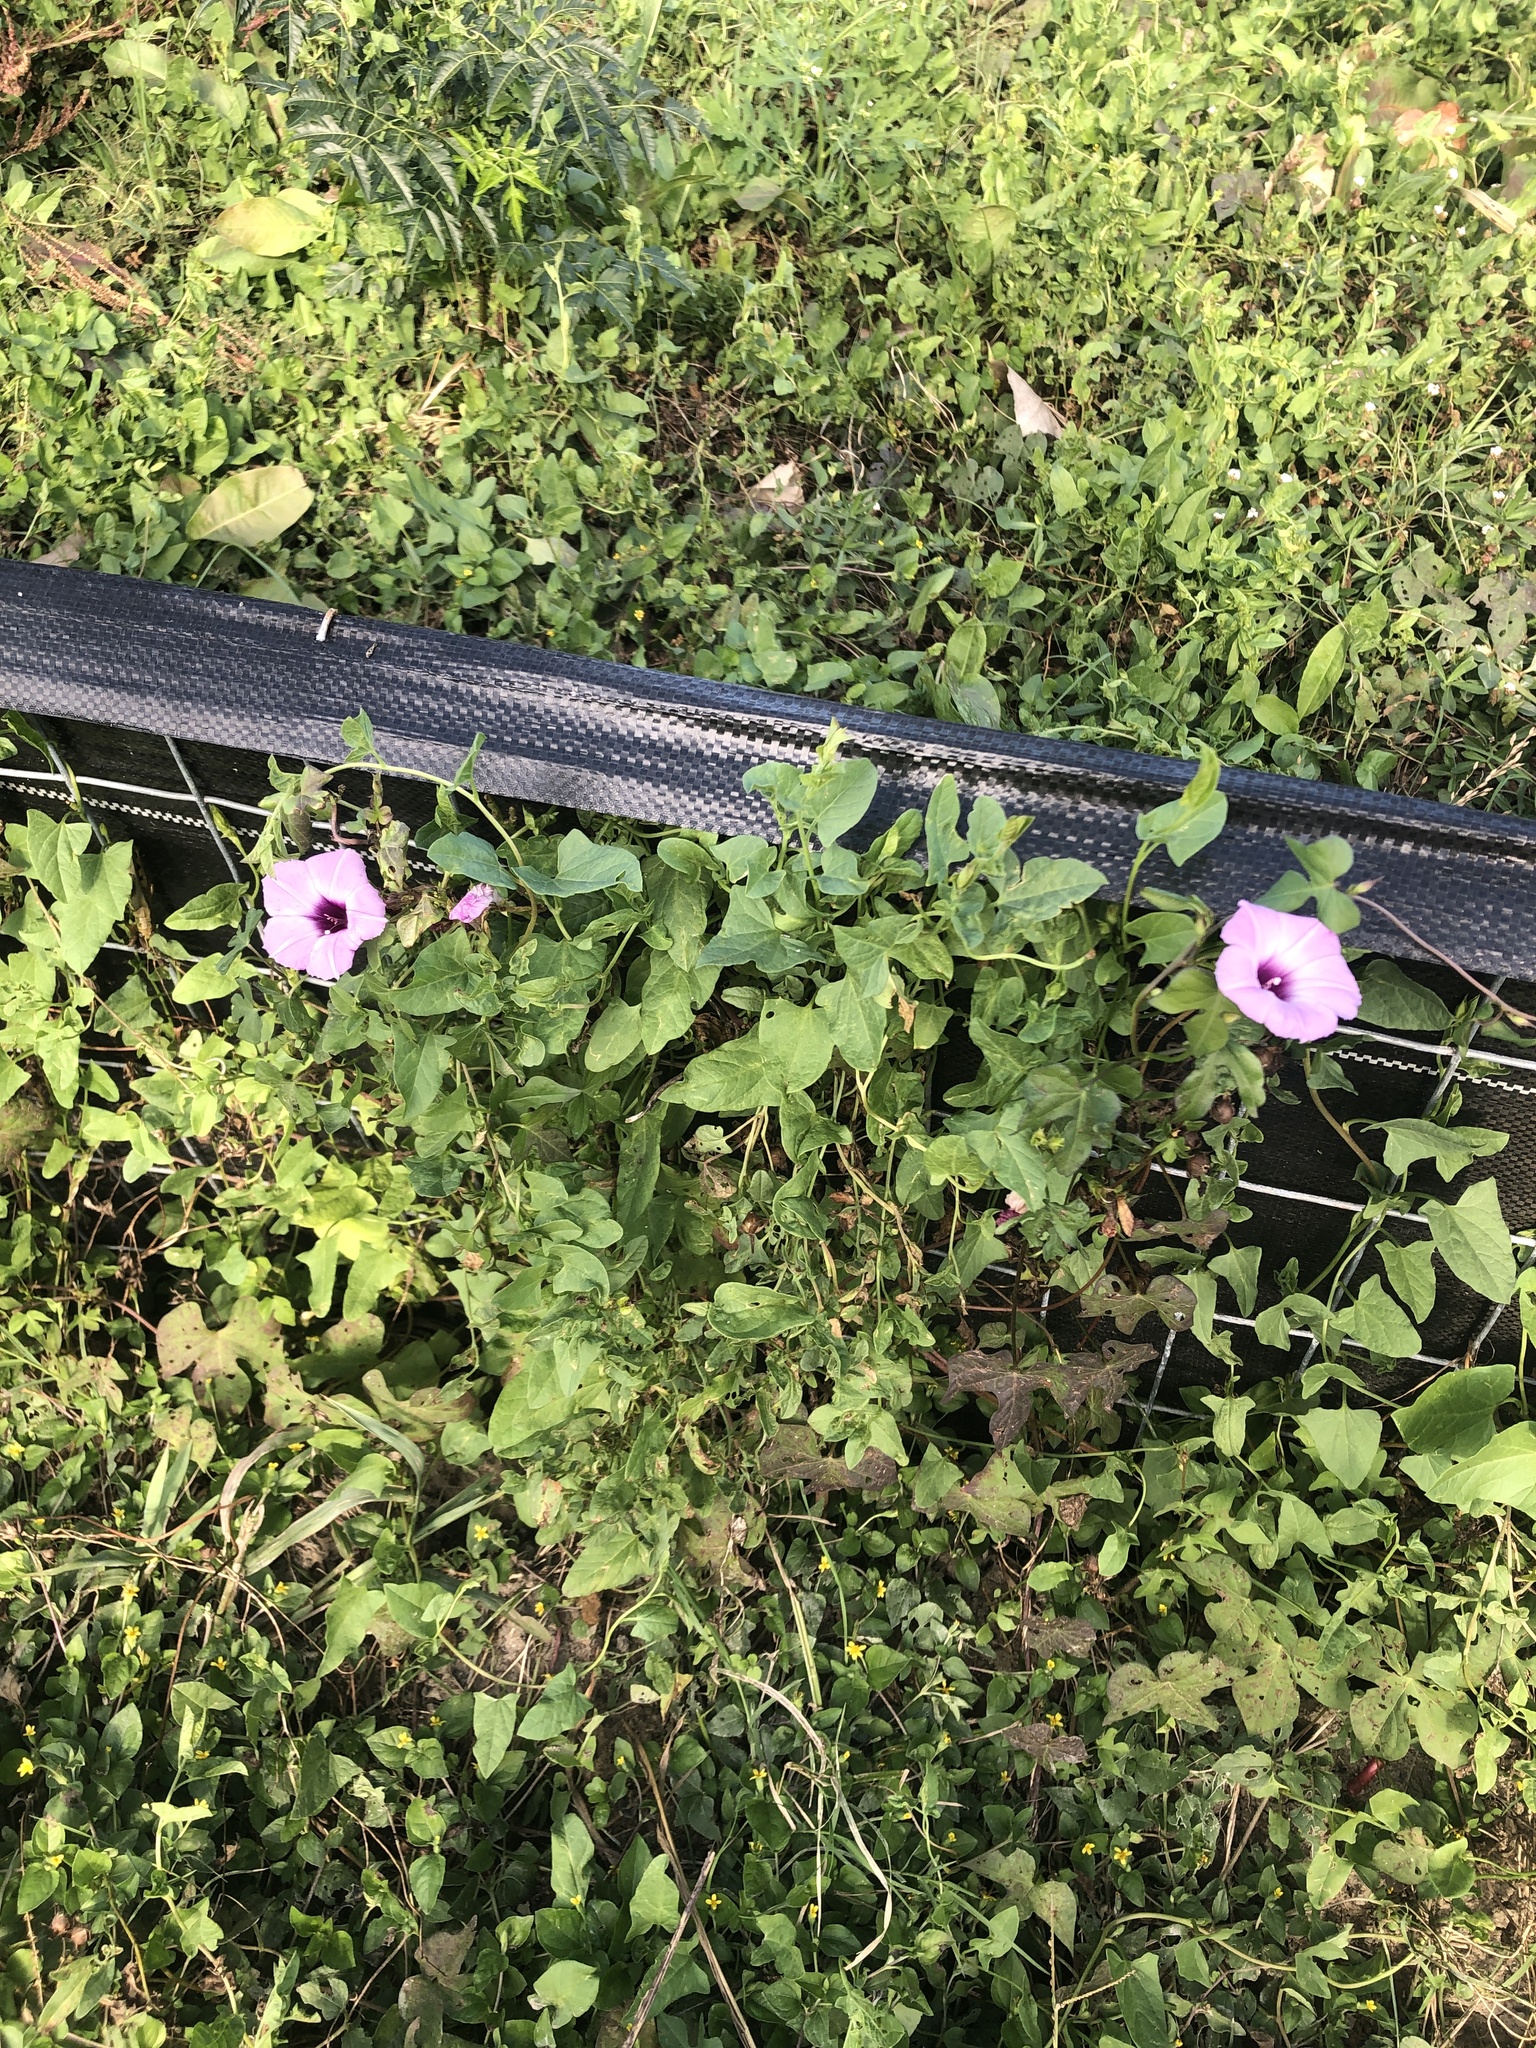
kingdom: Plantae
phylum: Tracheophyta
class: Magnoliopsida
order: Solanales
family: Convolvulaceae
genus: Ipomoea
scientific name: Ipomoea cordatotriloba
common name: Cotton morning glory
